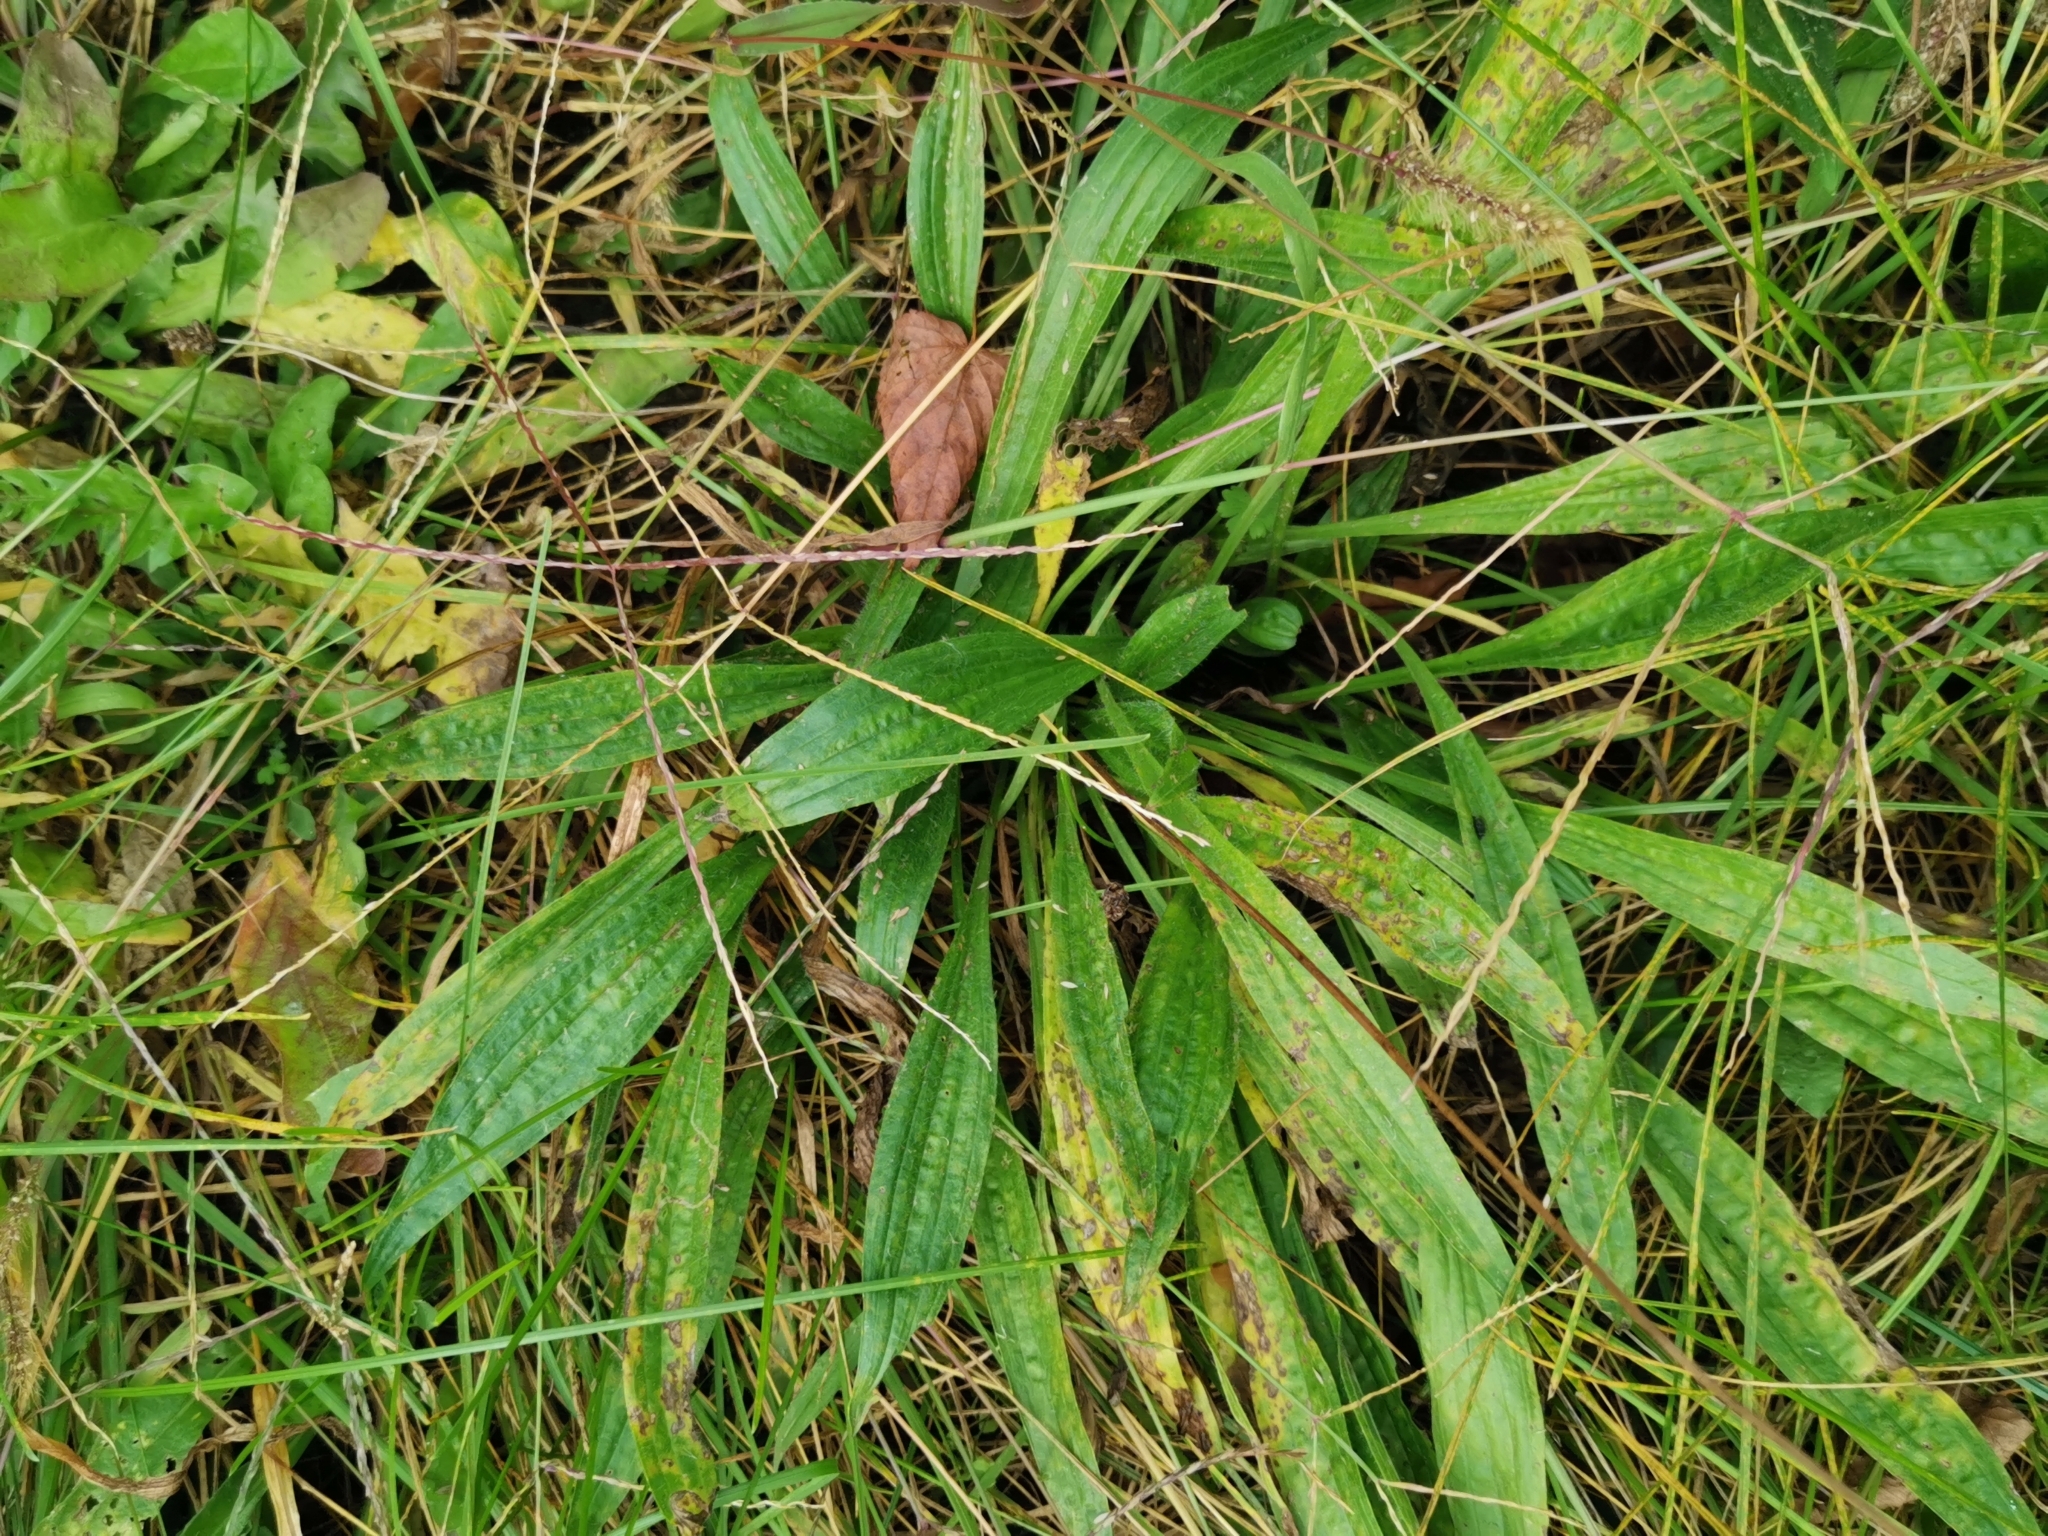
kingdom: Plantae
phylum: Tracheophyta
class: Magnoliopsida
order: Lamiales
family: Plantaginaceae
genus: Plantago
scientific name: Plantago lanceolata
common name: Ribwort plantain
